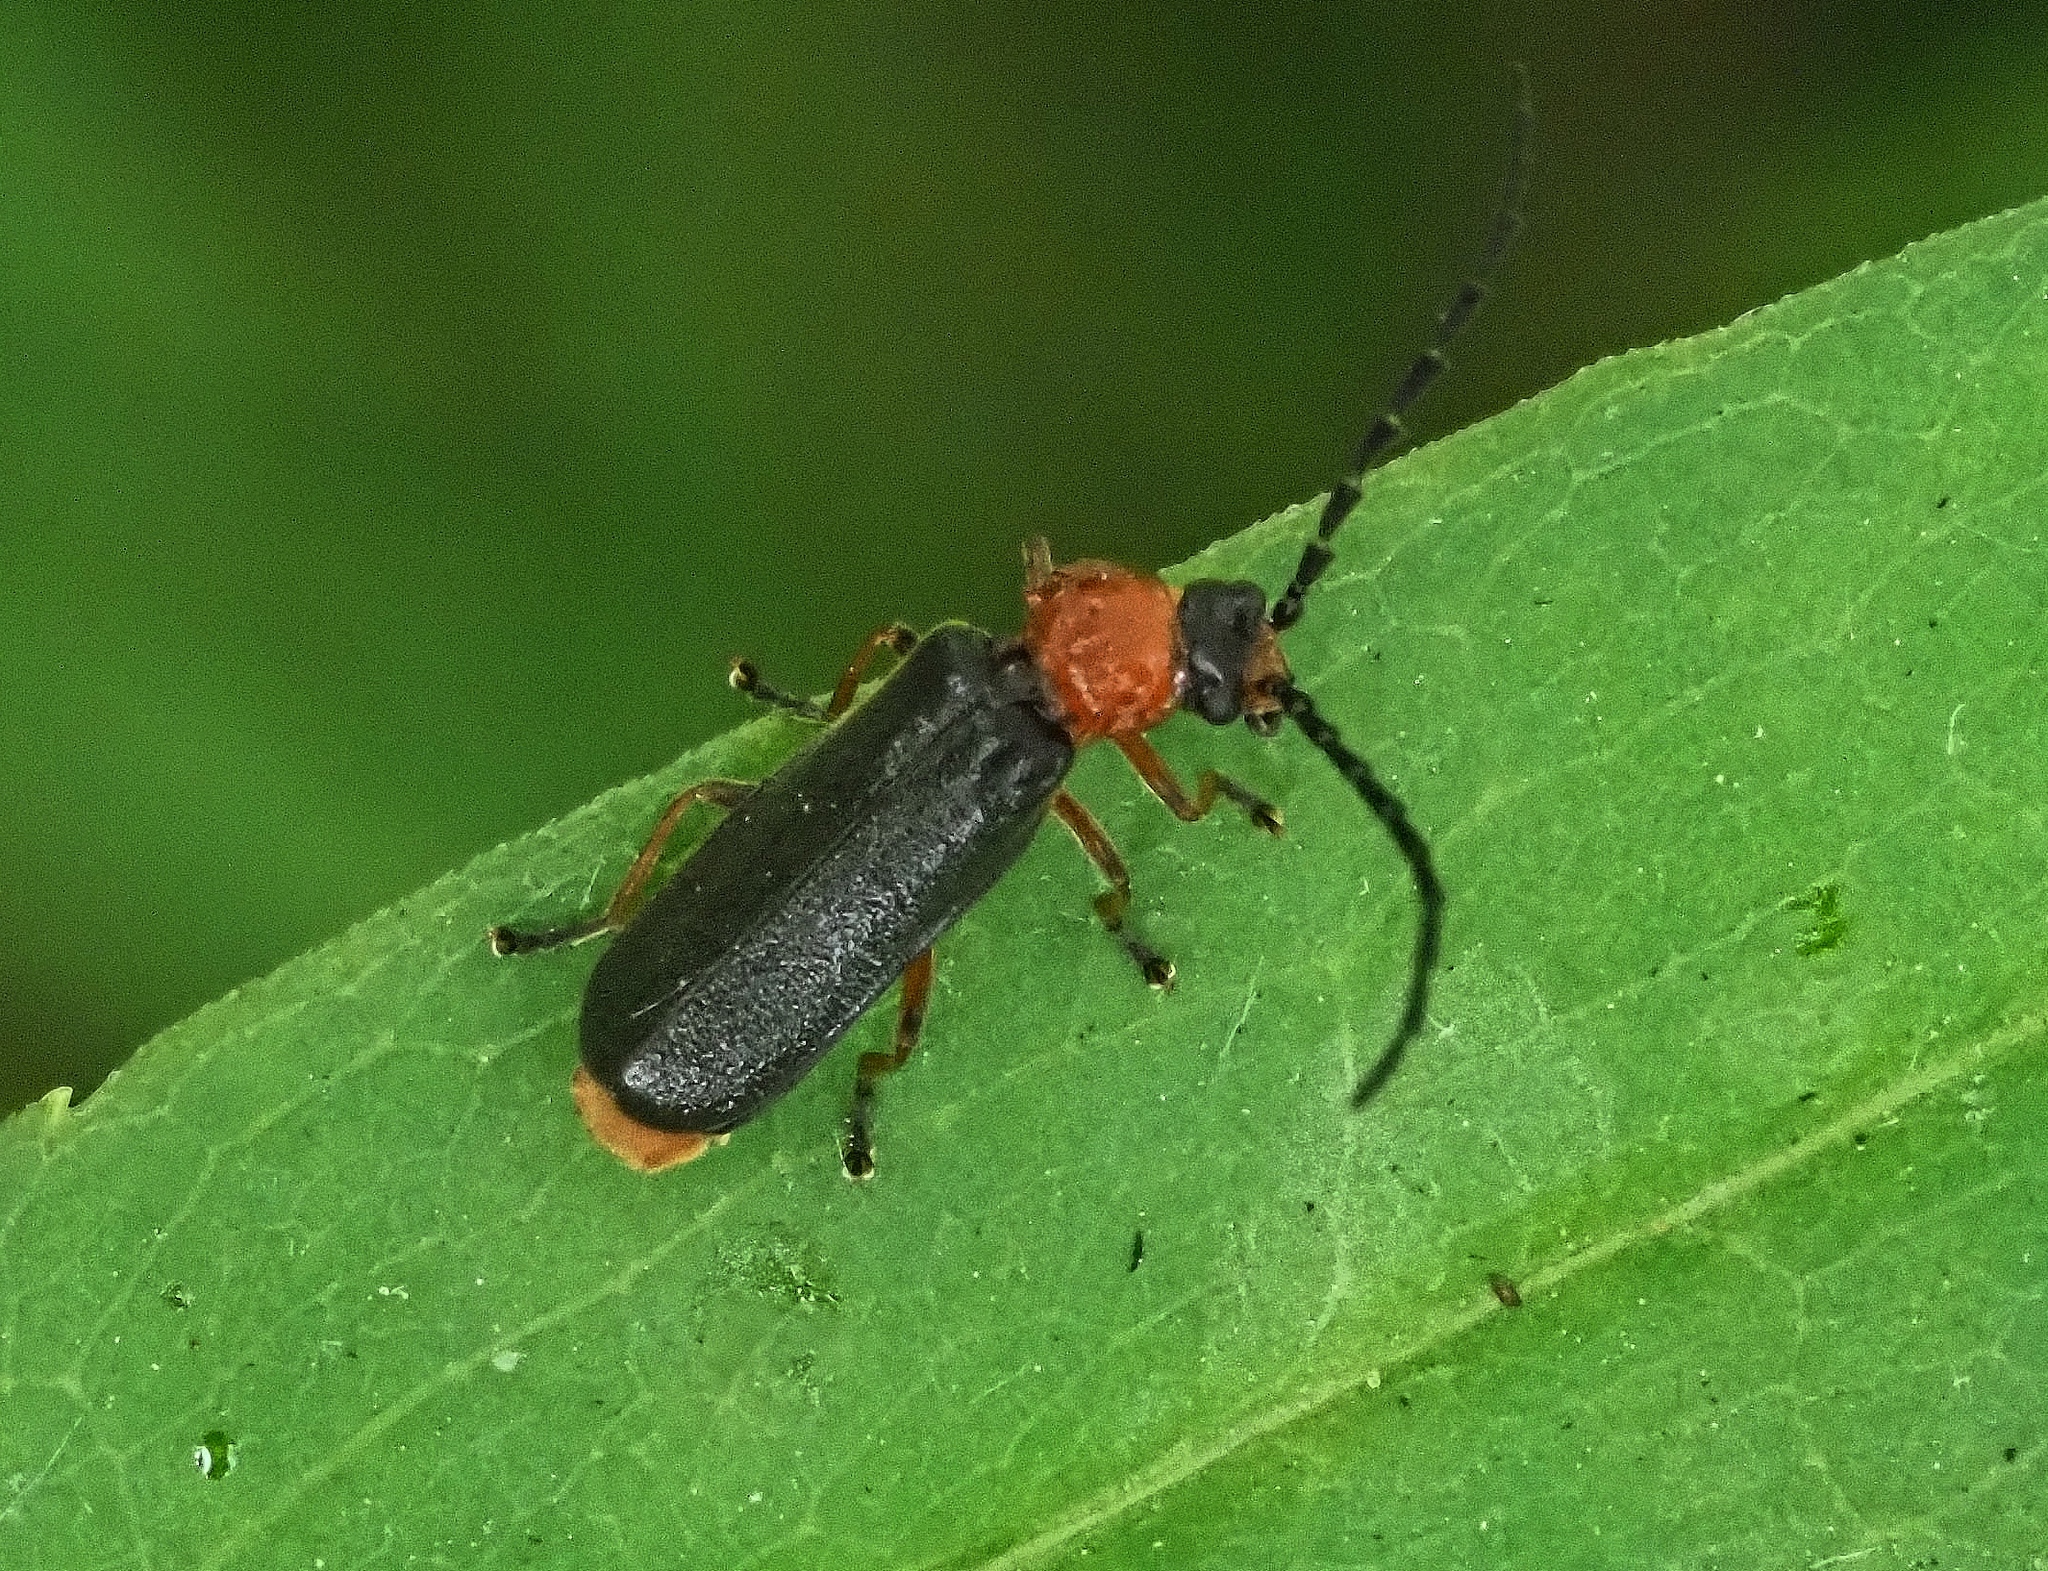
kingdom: Animalia
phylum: Arthropoda
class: Insecta
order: Coleoptera
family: Cantharidae
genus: Crudosilis
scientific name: Crudosilis ruficollis
